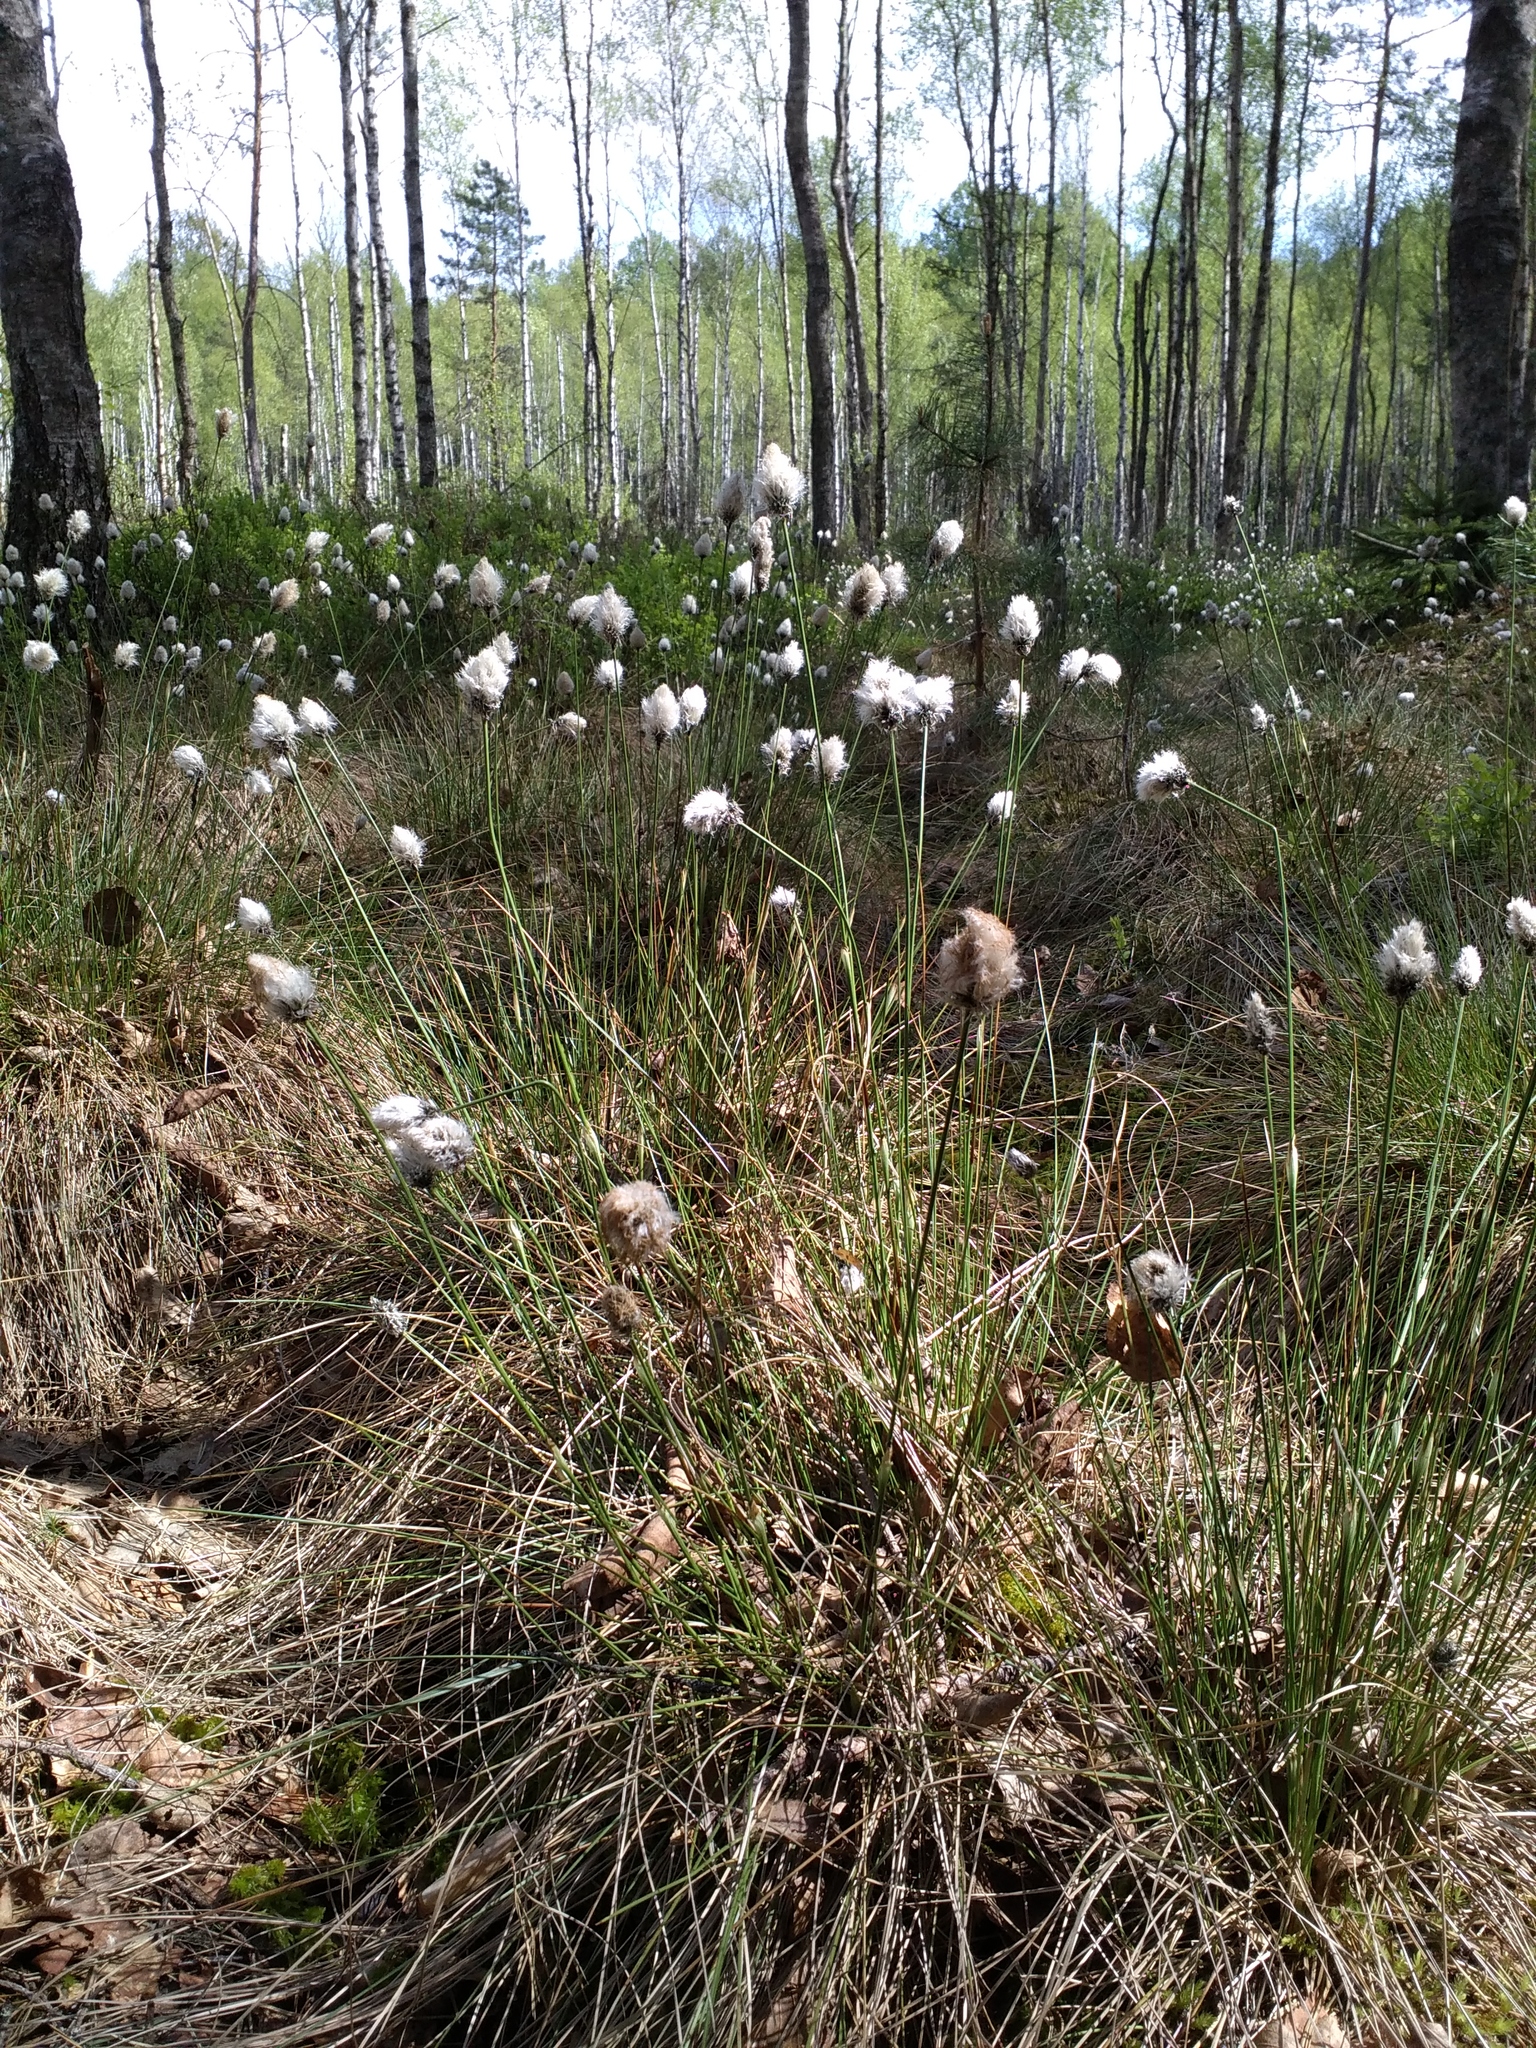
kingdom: Plantae
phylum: Tracheophyta
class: Liliopsida
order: Poales
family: Cyperaceae
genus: Eriophorum
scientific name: Eriophorum vaginatum
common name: Hare's-tail cottongrass
